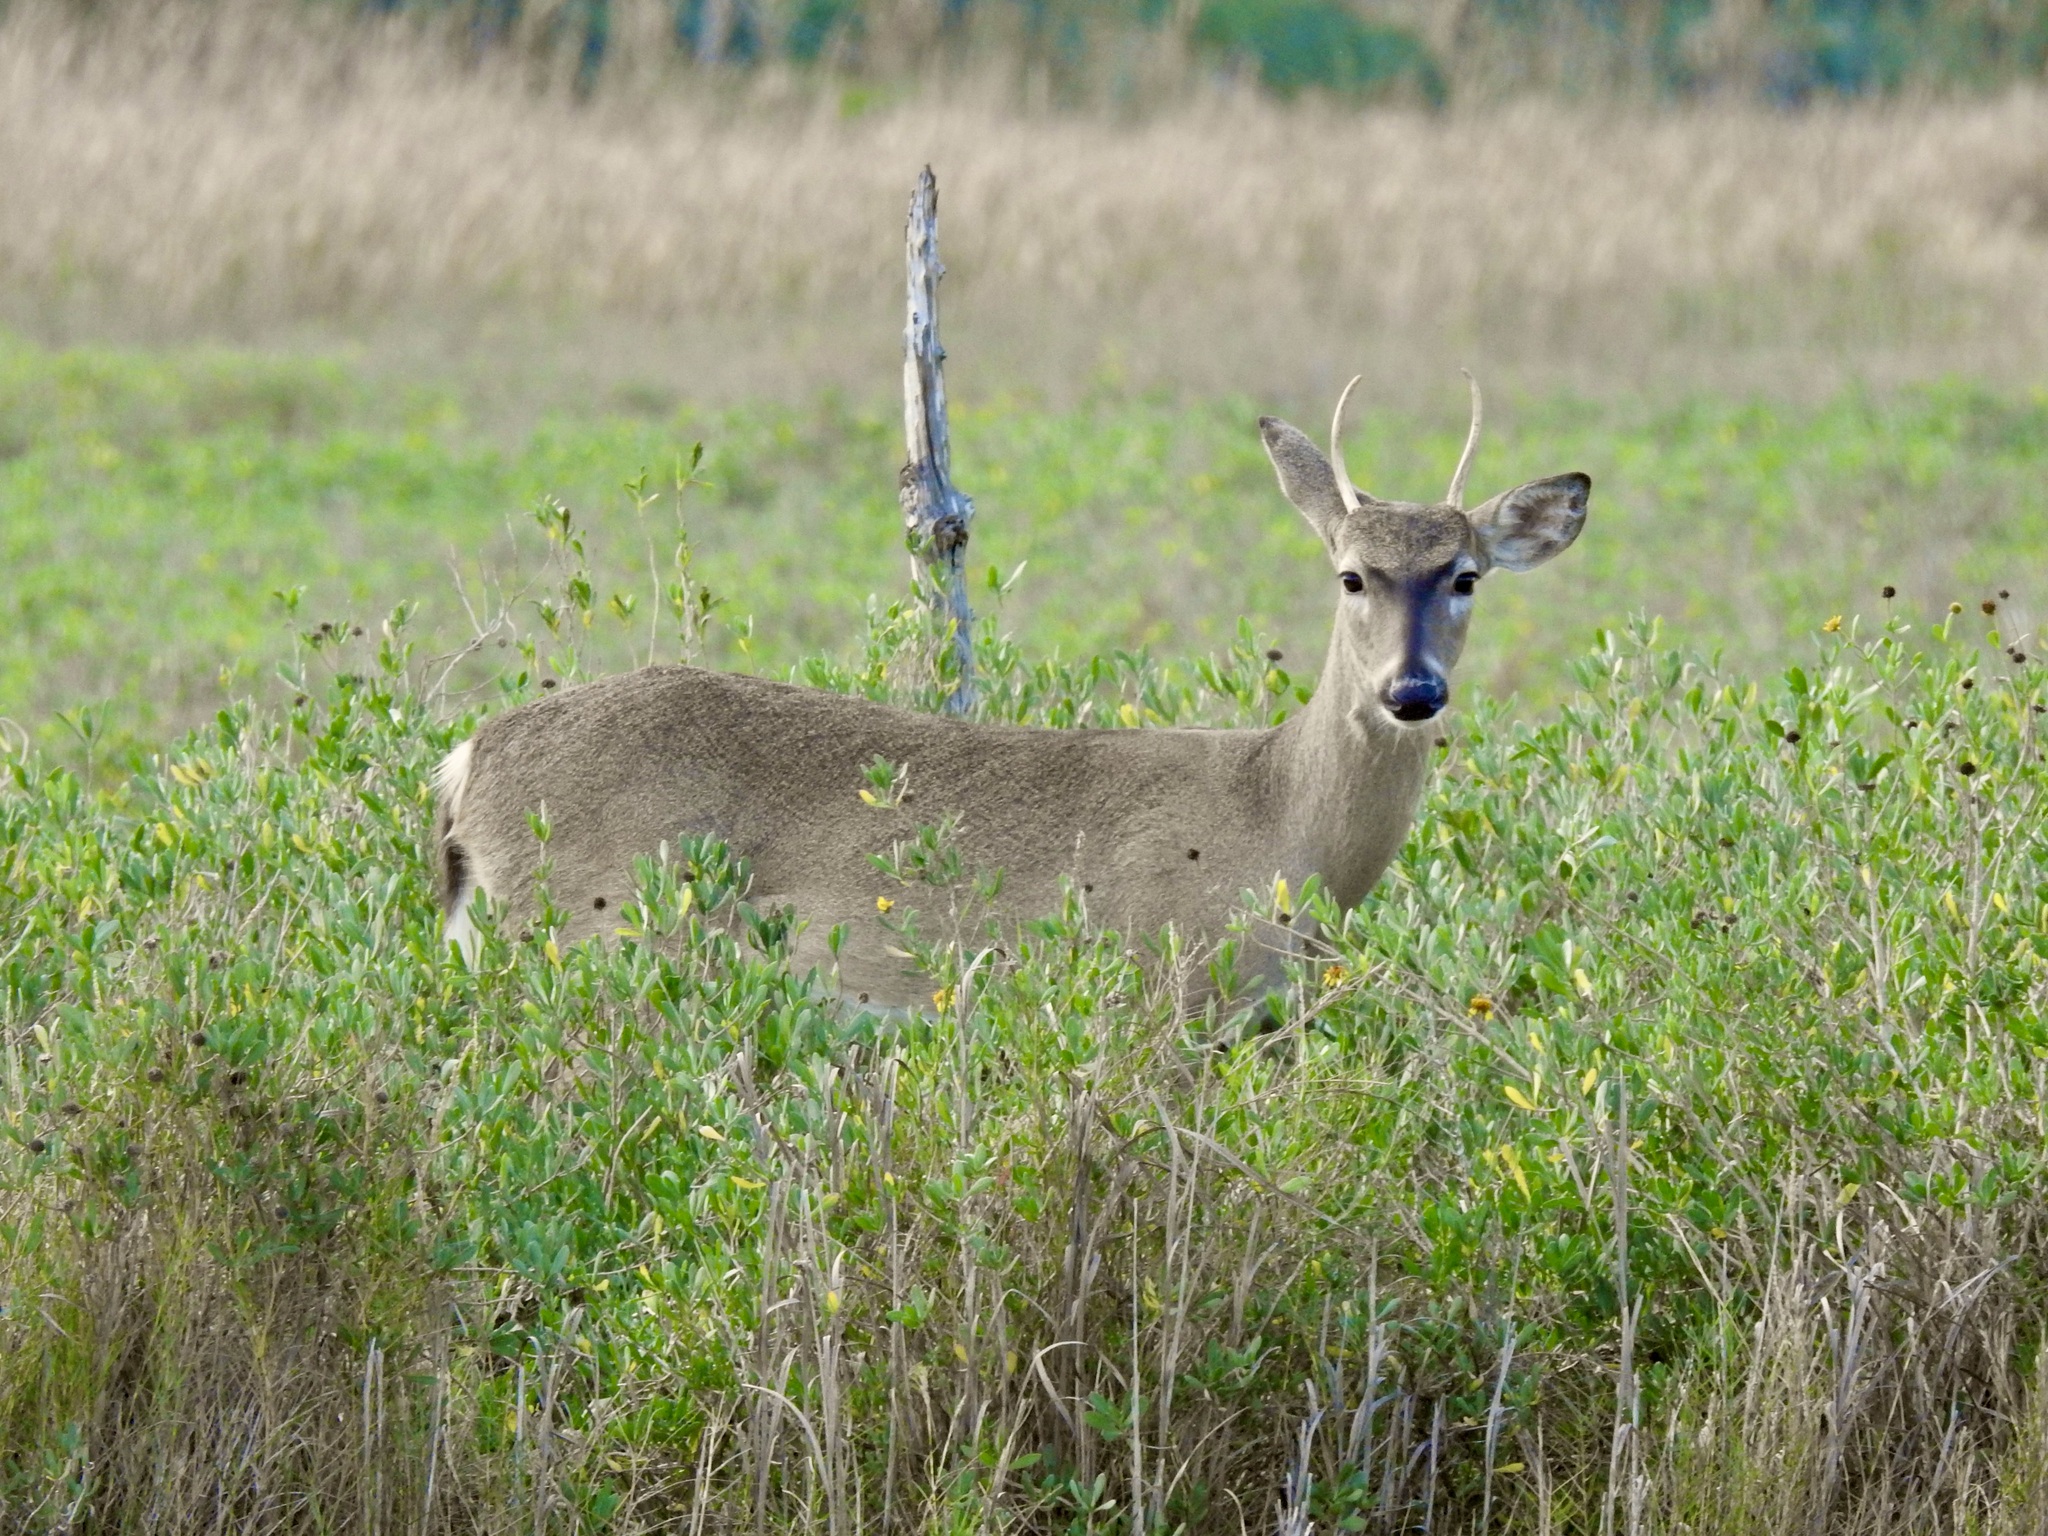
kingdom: Animalia
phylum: Chordata
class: Mammalia
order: Artiodactyla
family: Cervidae
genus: Odocoileus
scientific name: Odocoileus virginianus
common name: White-tailed deer
